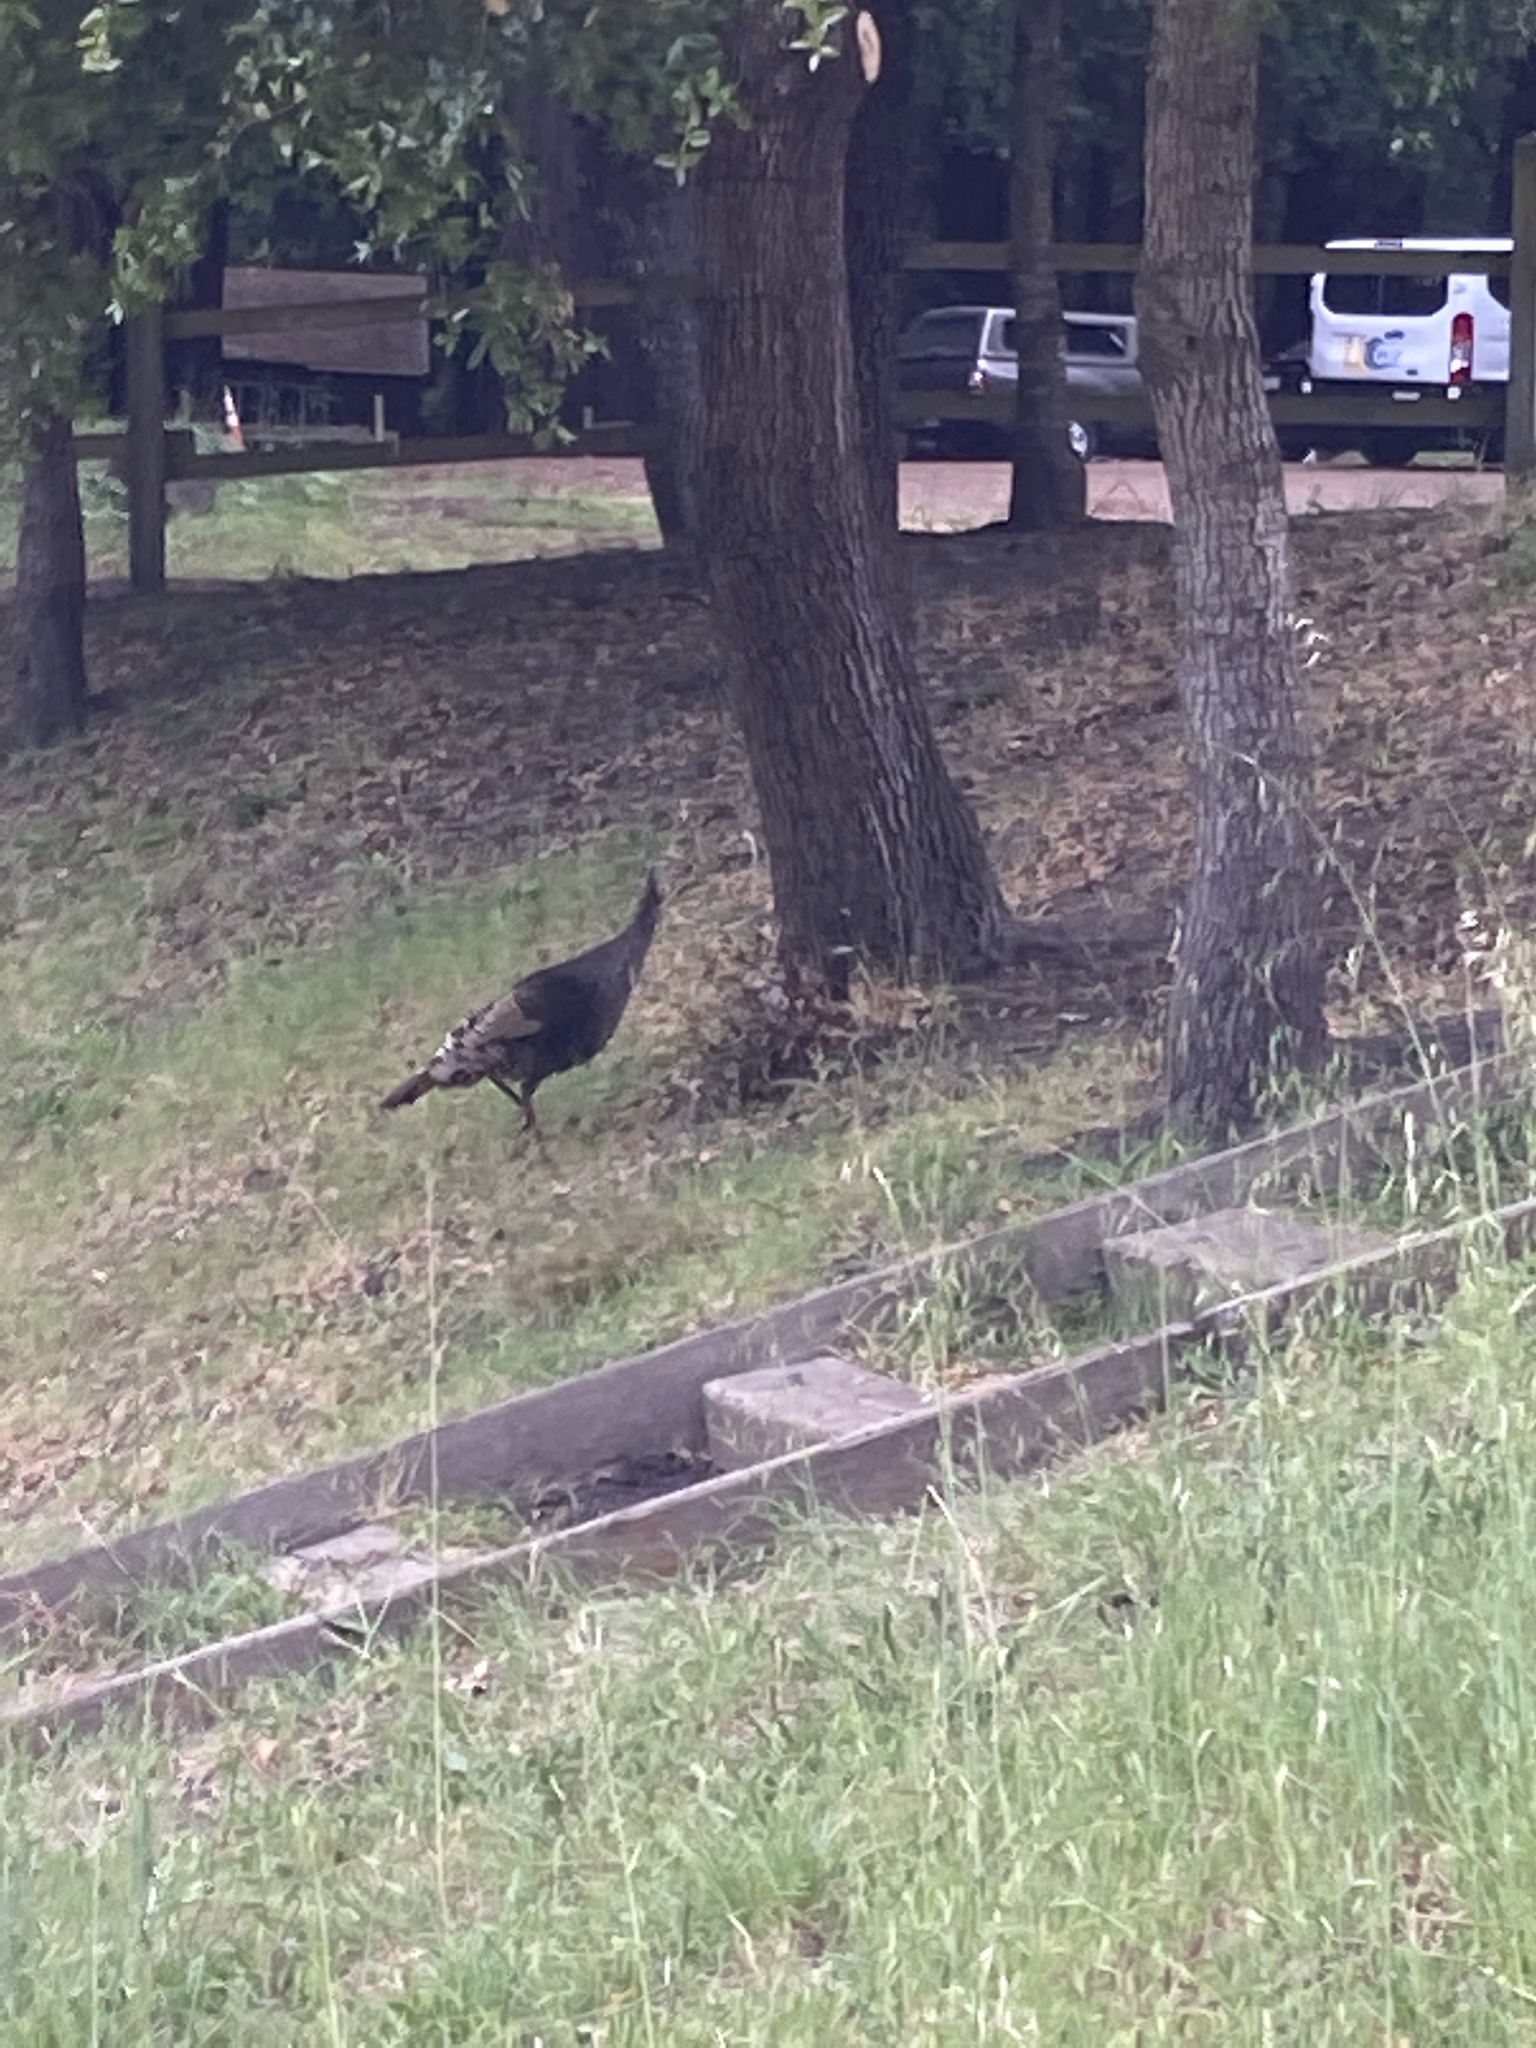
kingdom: Animalia
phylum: Chordata
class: Aves
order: Galliformes
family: Phasianidae
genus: Meleagris
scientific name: Meleagris gallopavo
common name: Wild turkey
